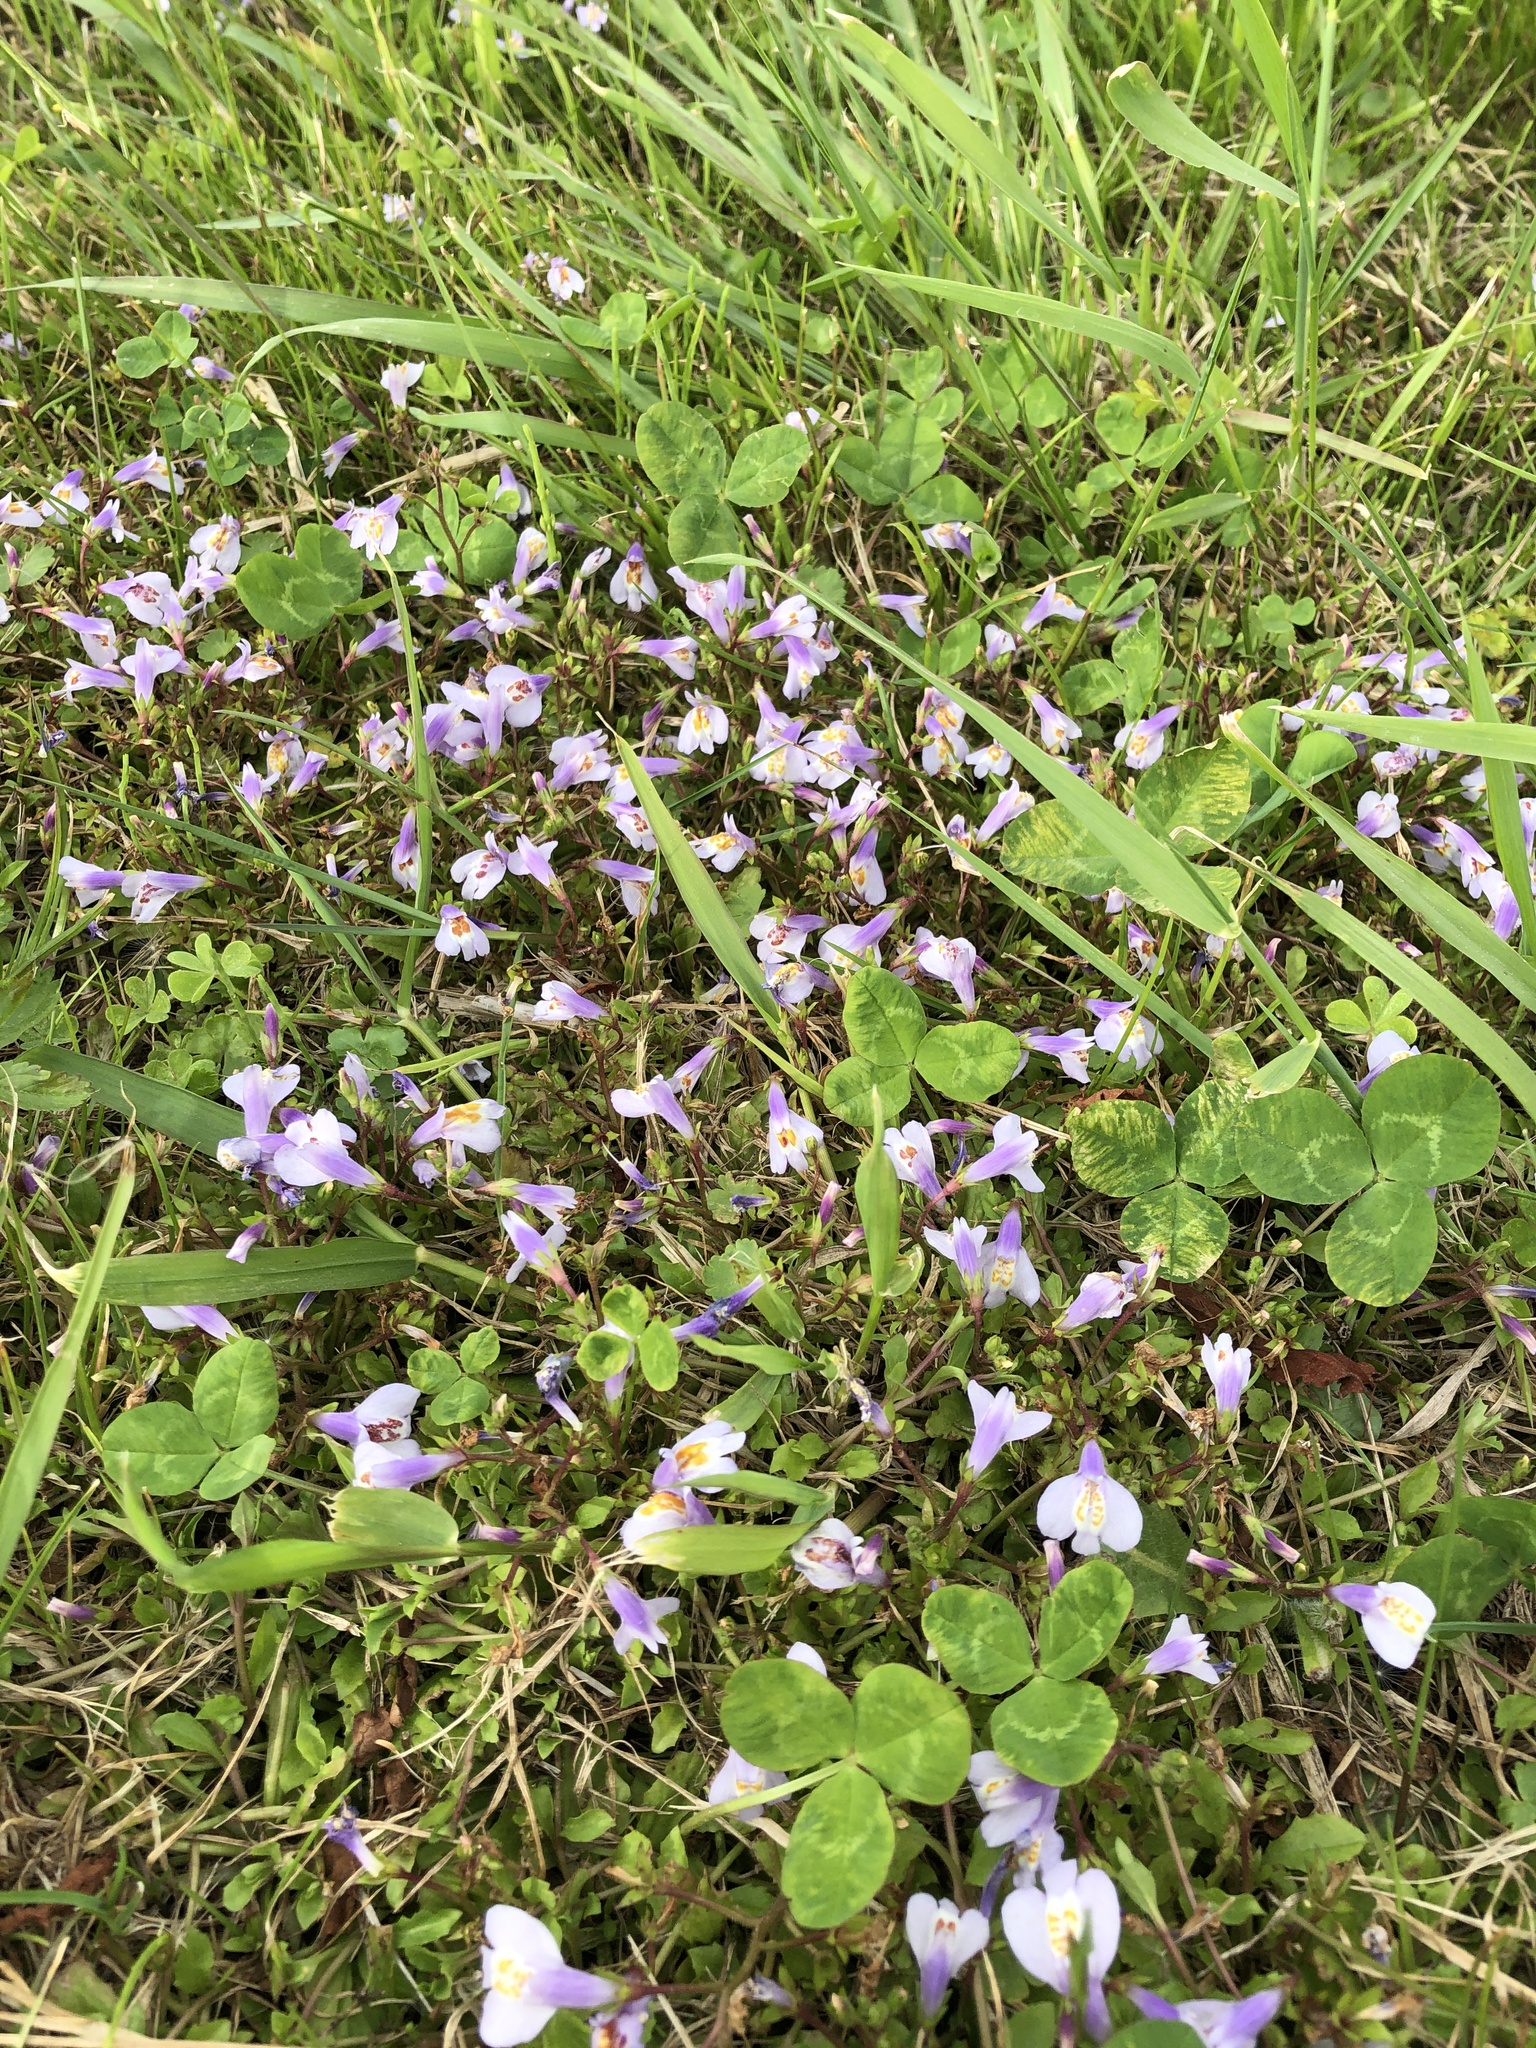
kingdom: Plantae
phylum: Tracheophyta
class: Magnoliopsida
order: Lamiales
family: Mazaceae
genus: Mazus
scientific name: Mazus miquelii
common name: Miquel's mazus
